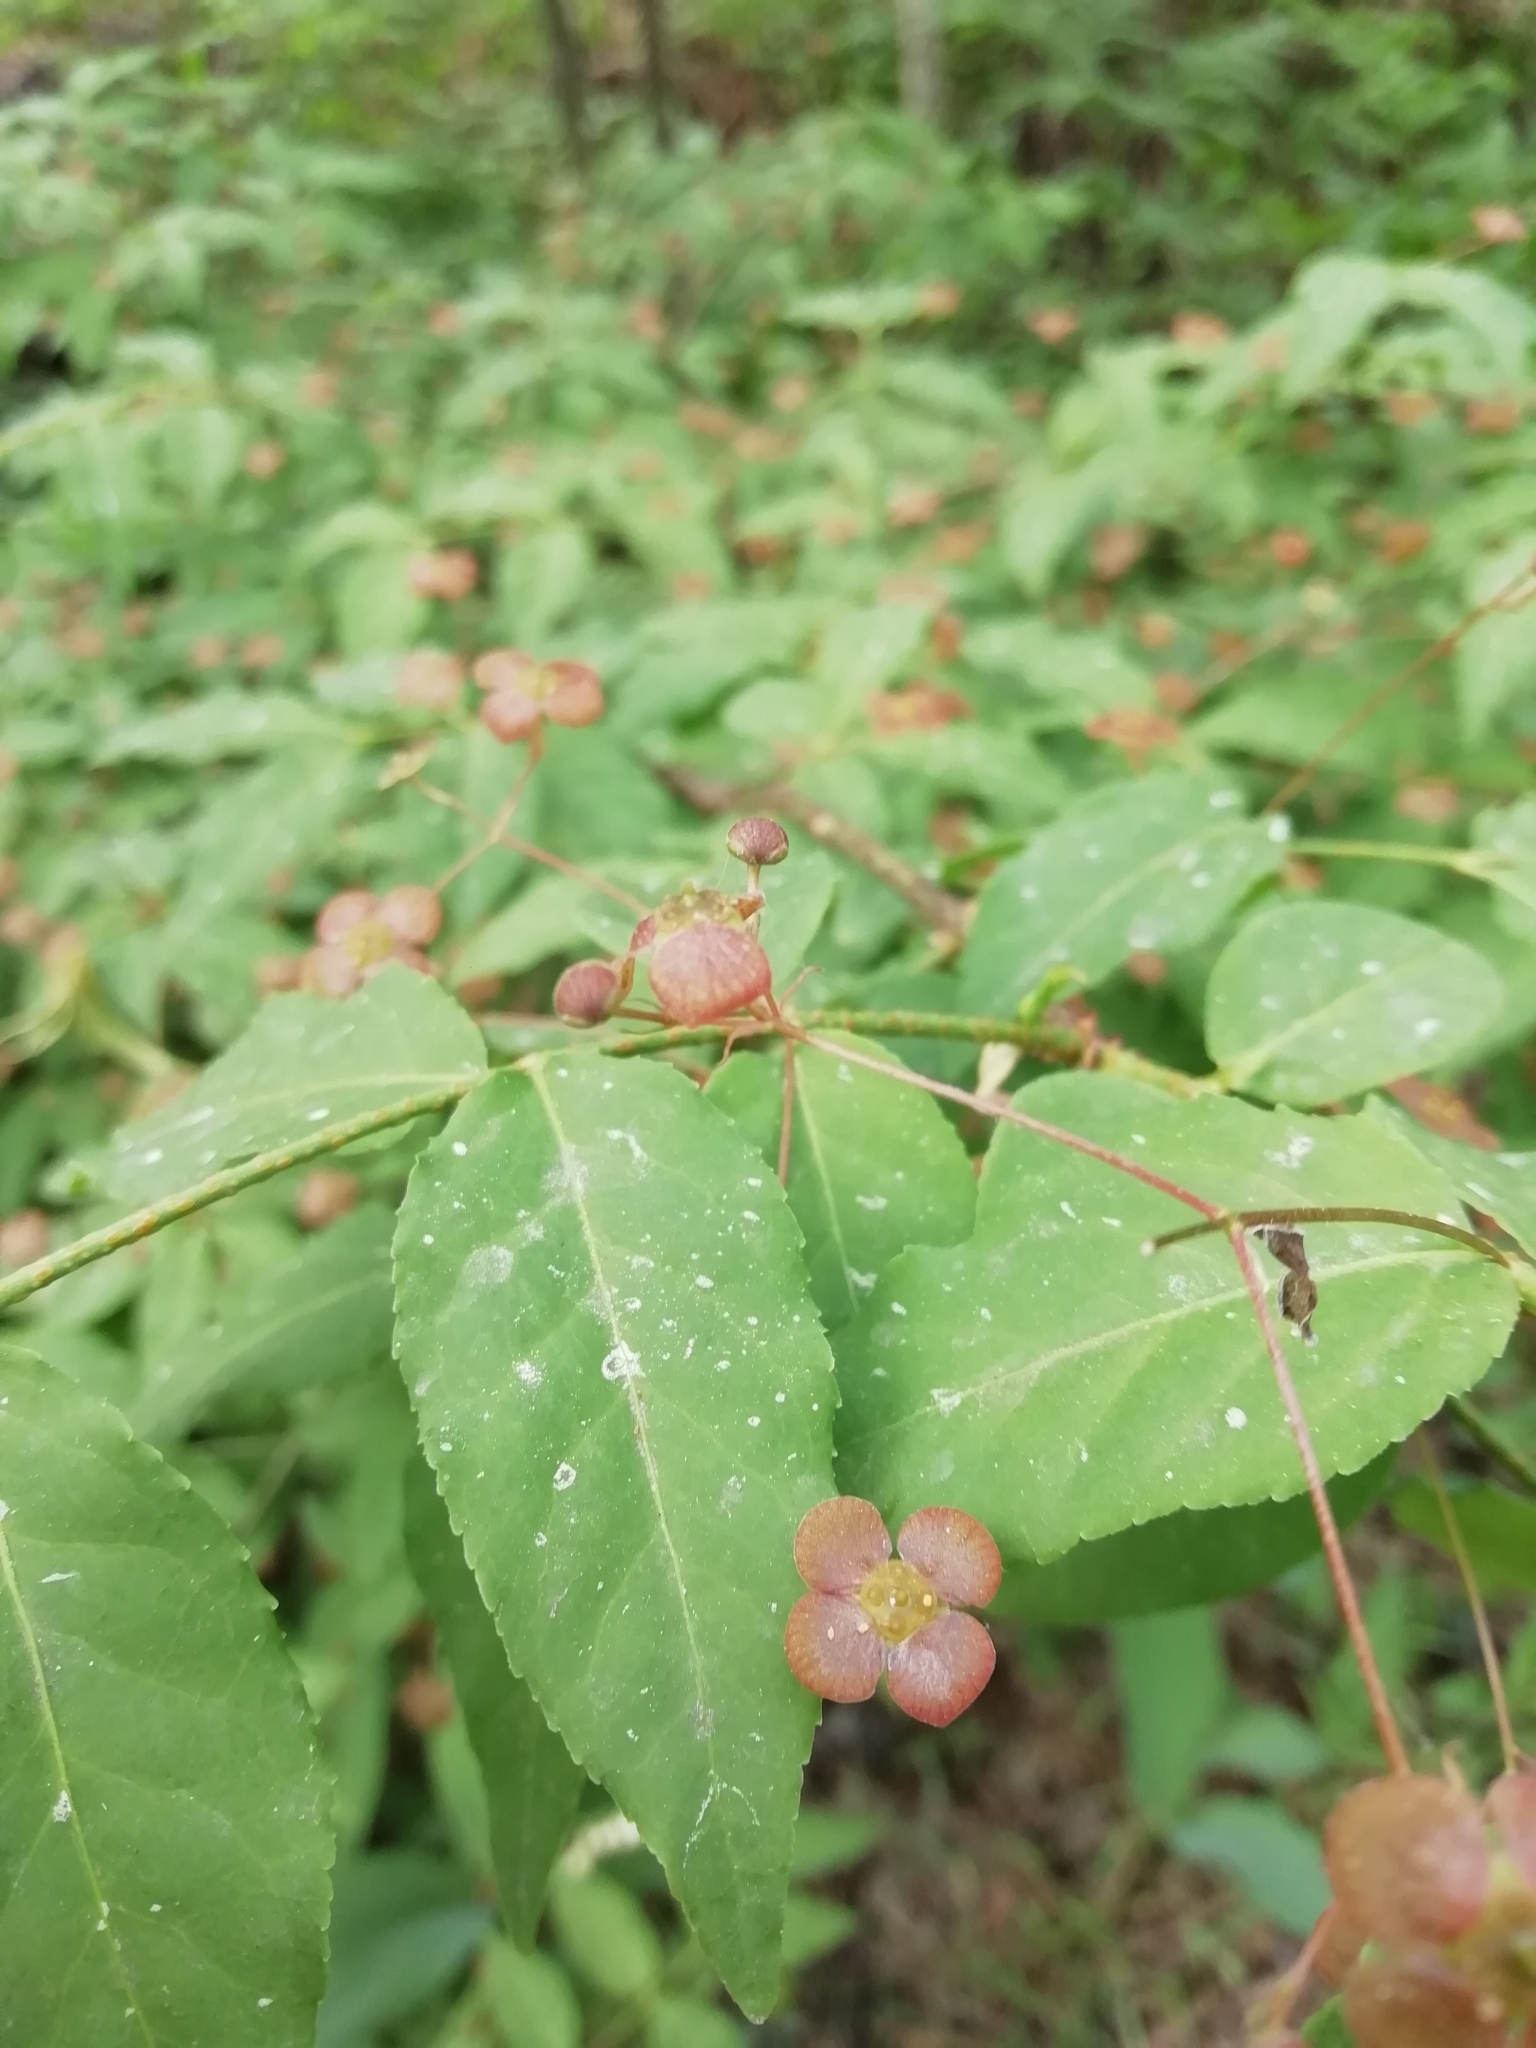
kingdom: Plantae
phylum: Tracheophyta
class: Magnoliopsida
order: Celastrales
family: Celastraceae
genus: Euonymus
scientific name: Euonymus verrucosus
